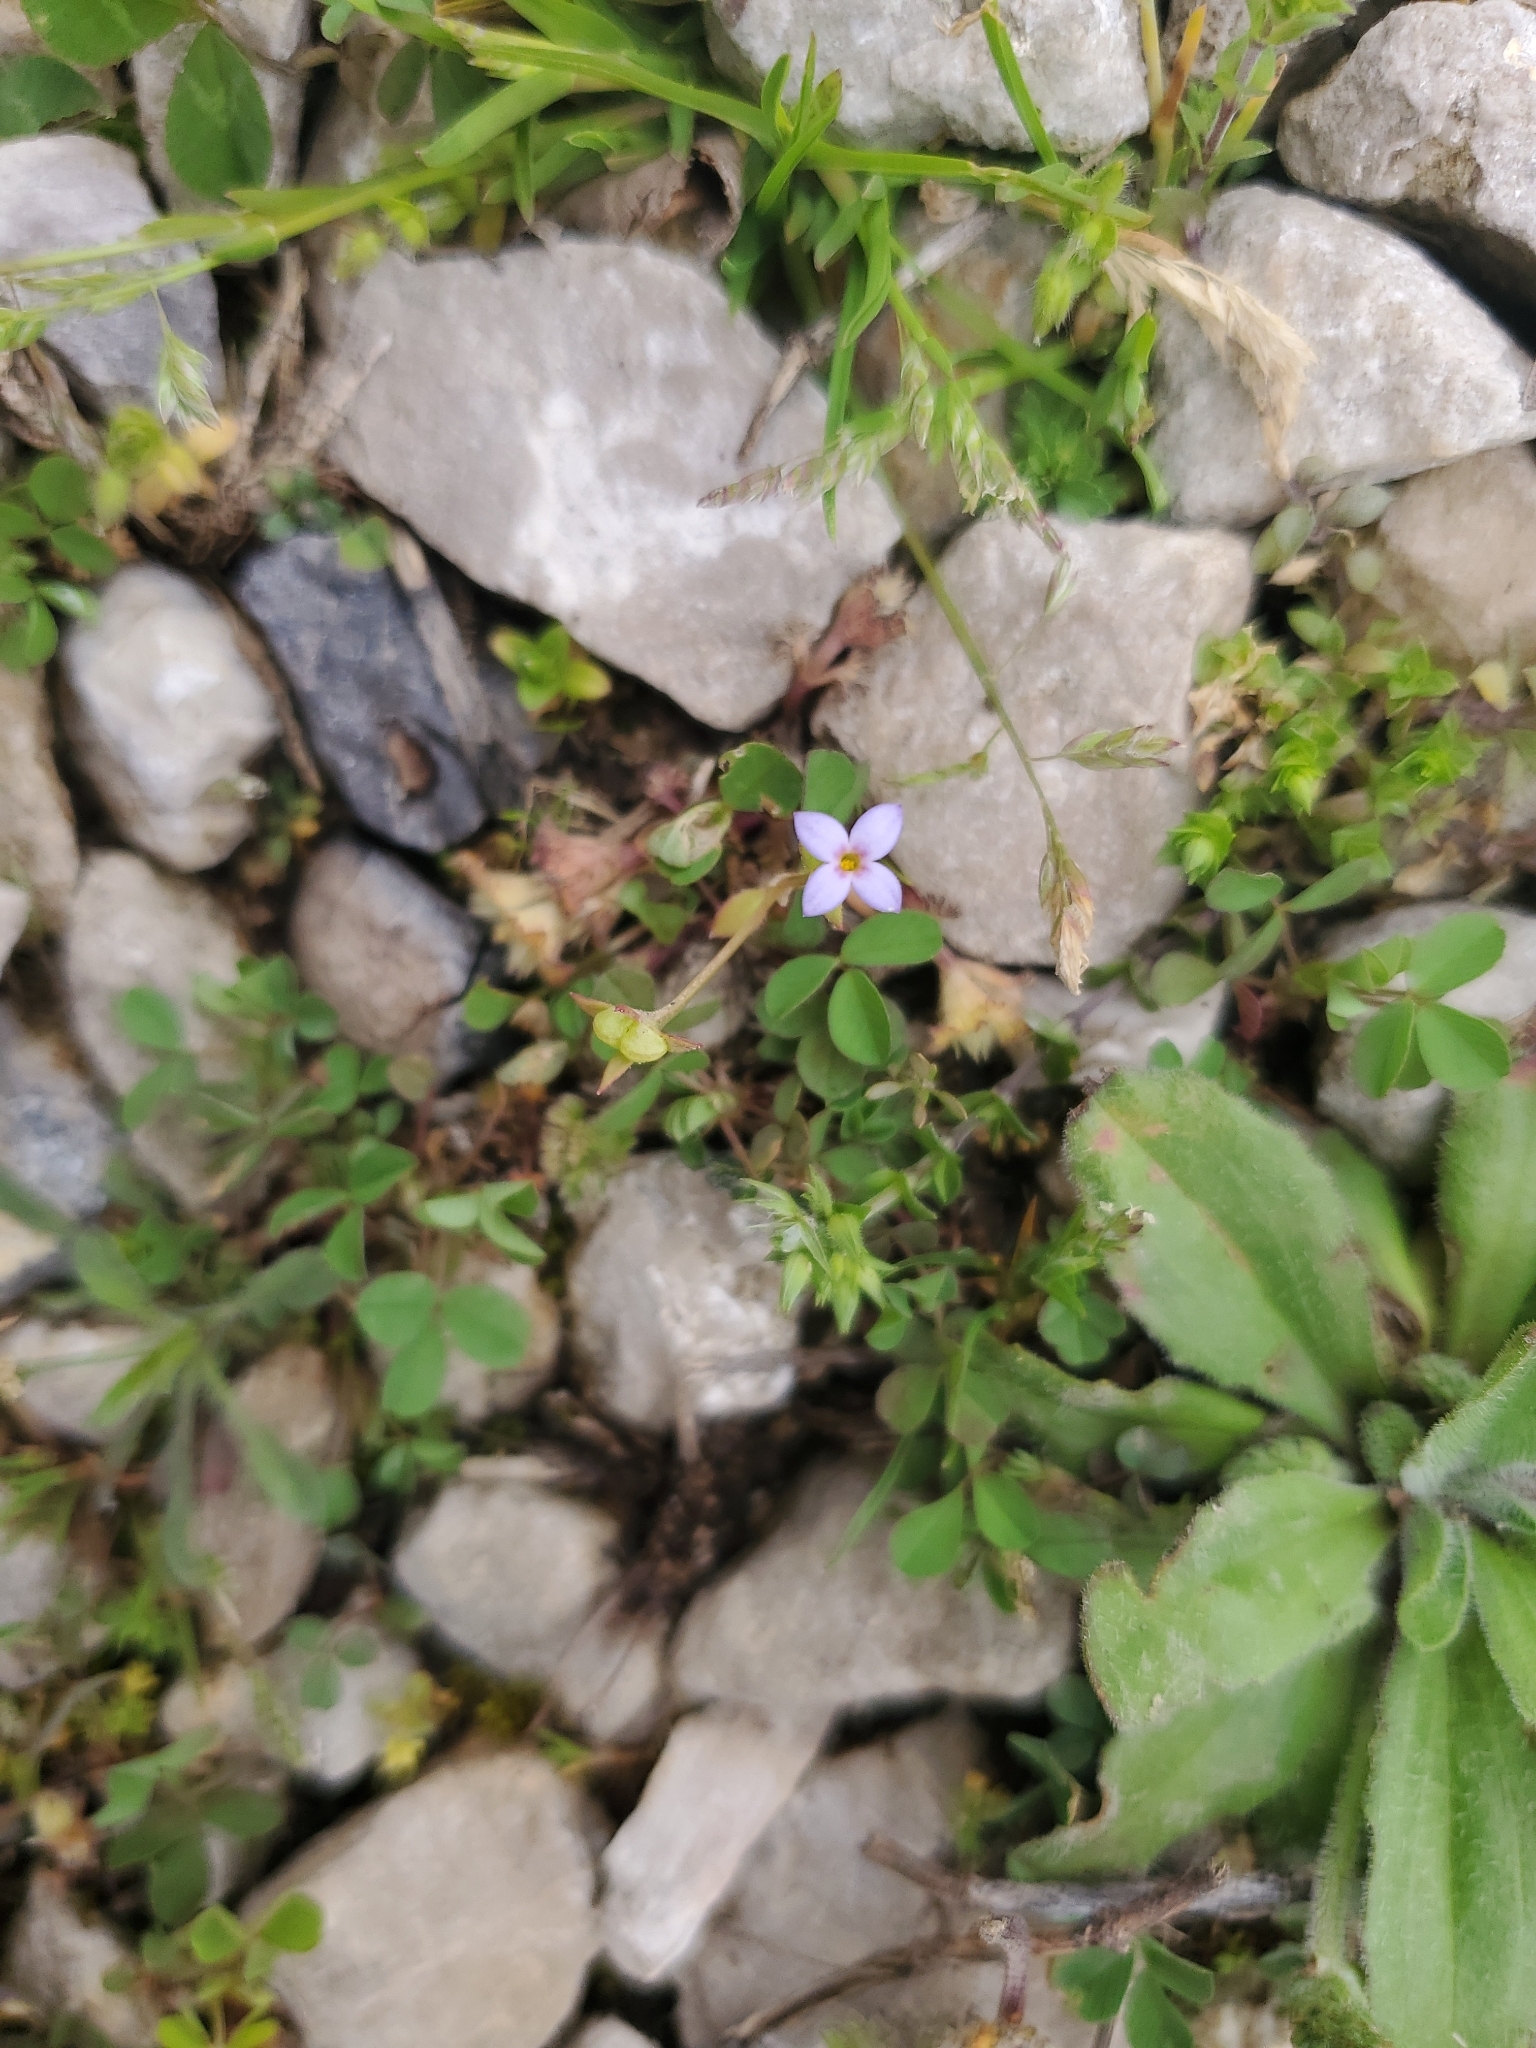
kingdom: Plantae
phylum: Tracheophyta
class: Magnoliopsida
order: Gentianales
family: Rubiaceae
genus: Houstonia
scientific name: Houstonia pusilla
